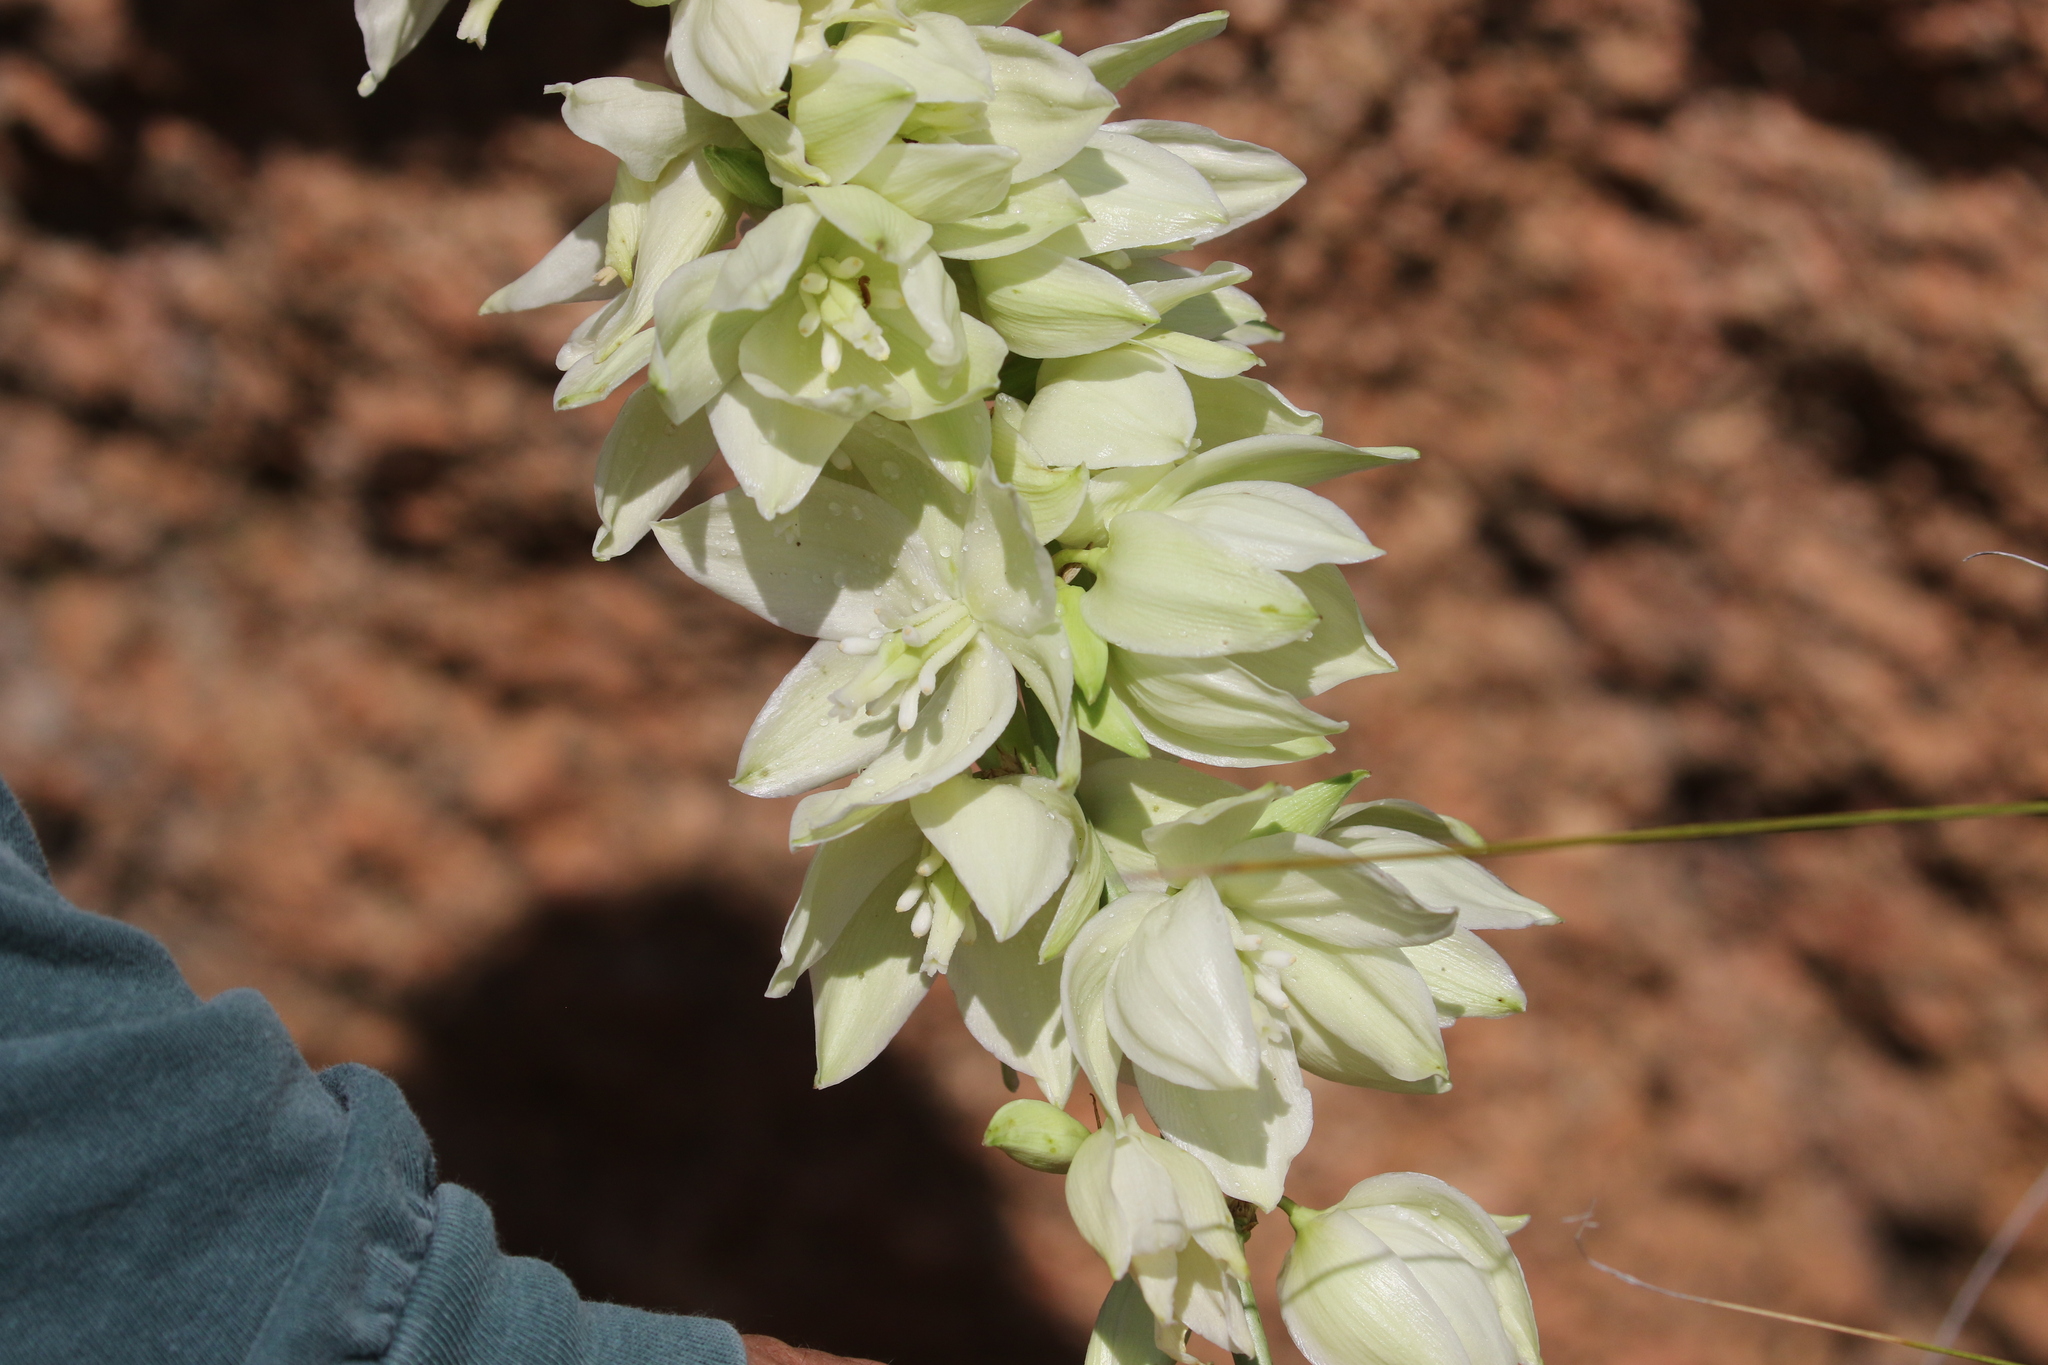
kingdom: Plantae
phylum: Tracheophyta
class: Liliopsida
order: Asparagales
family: Asparagaceae
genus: Yucca
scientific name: Yucca constricta
